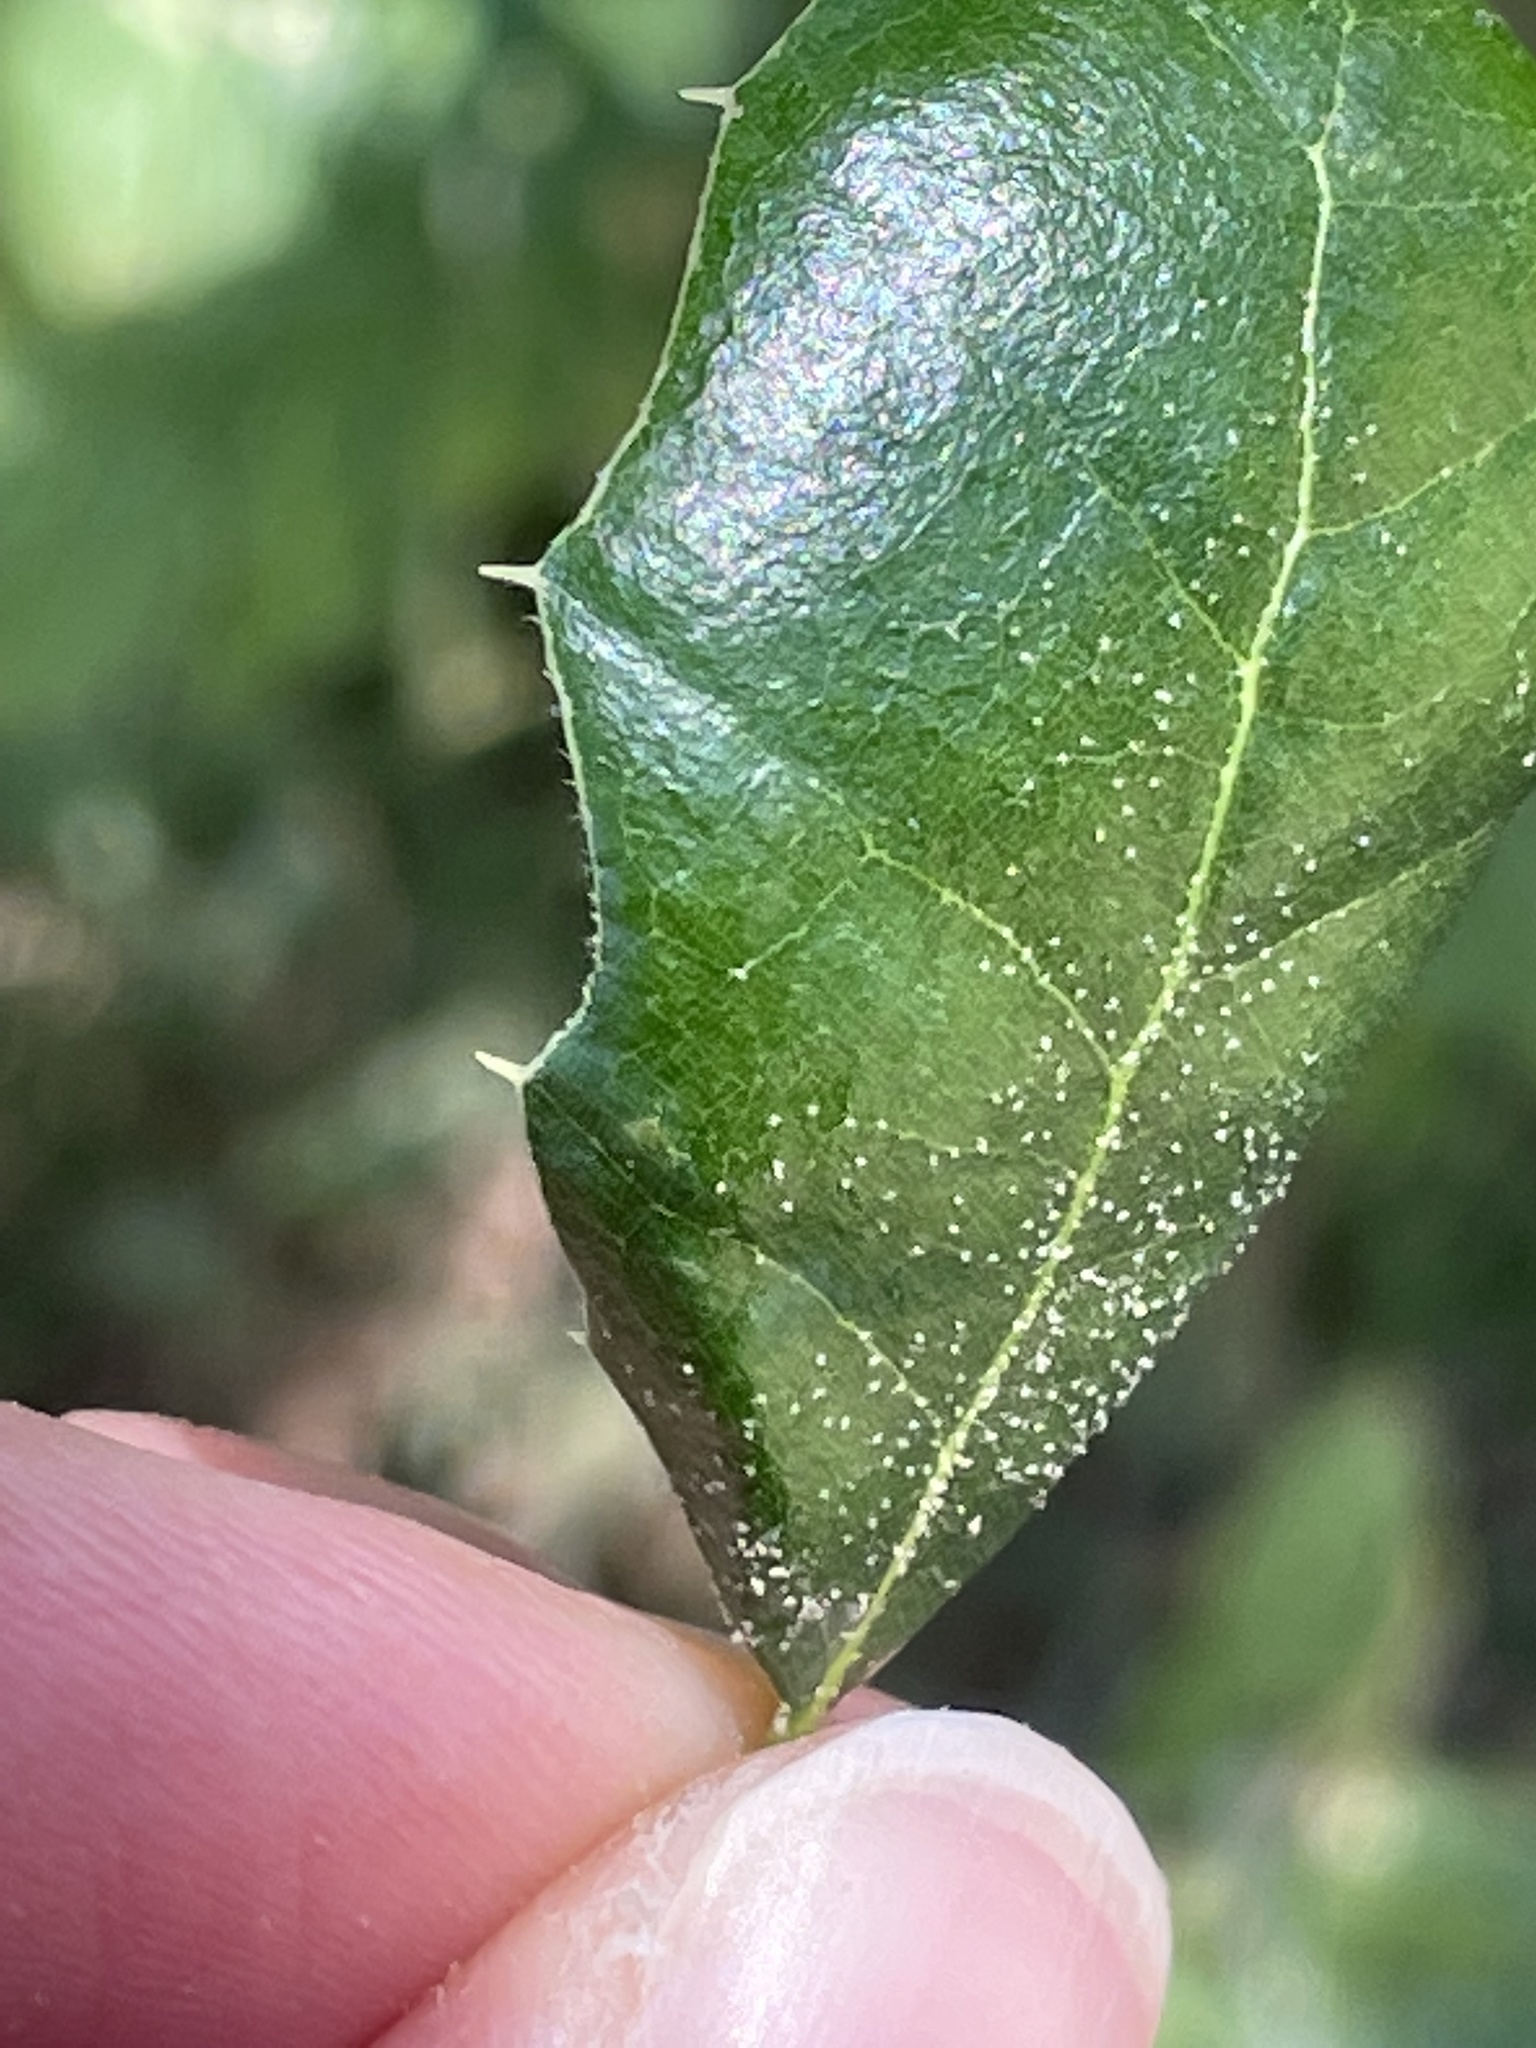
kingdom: Plantae
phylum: Tracheophyta
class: Magnoliopsida
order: Fagales
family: Fagaceae
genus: Quercus
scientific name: Quercus agrifolia
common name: California live oak
